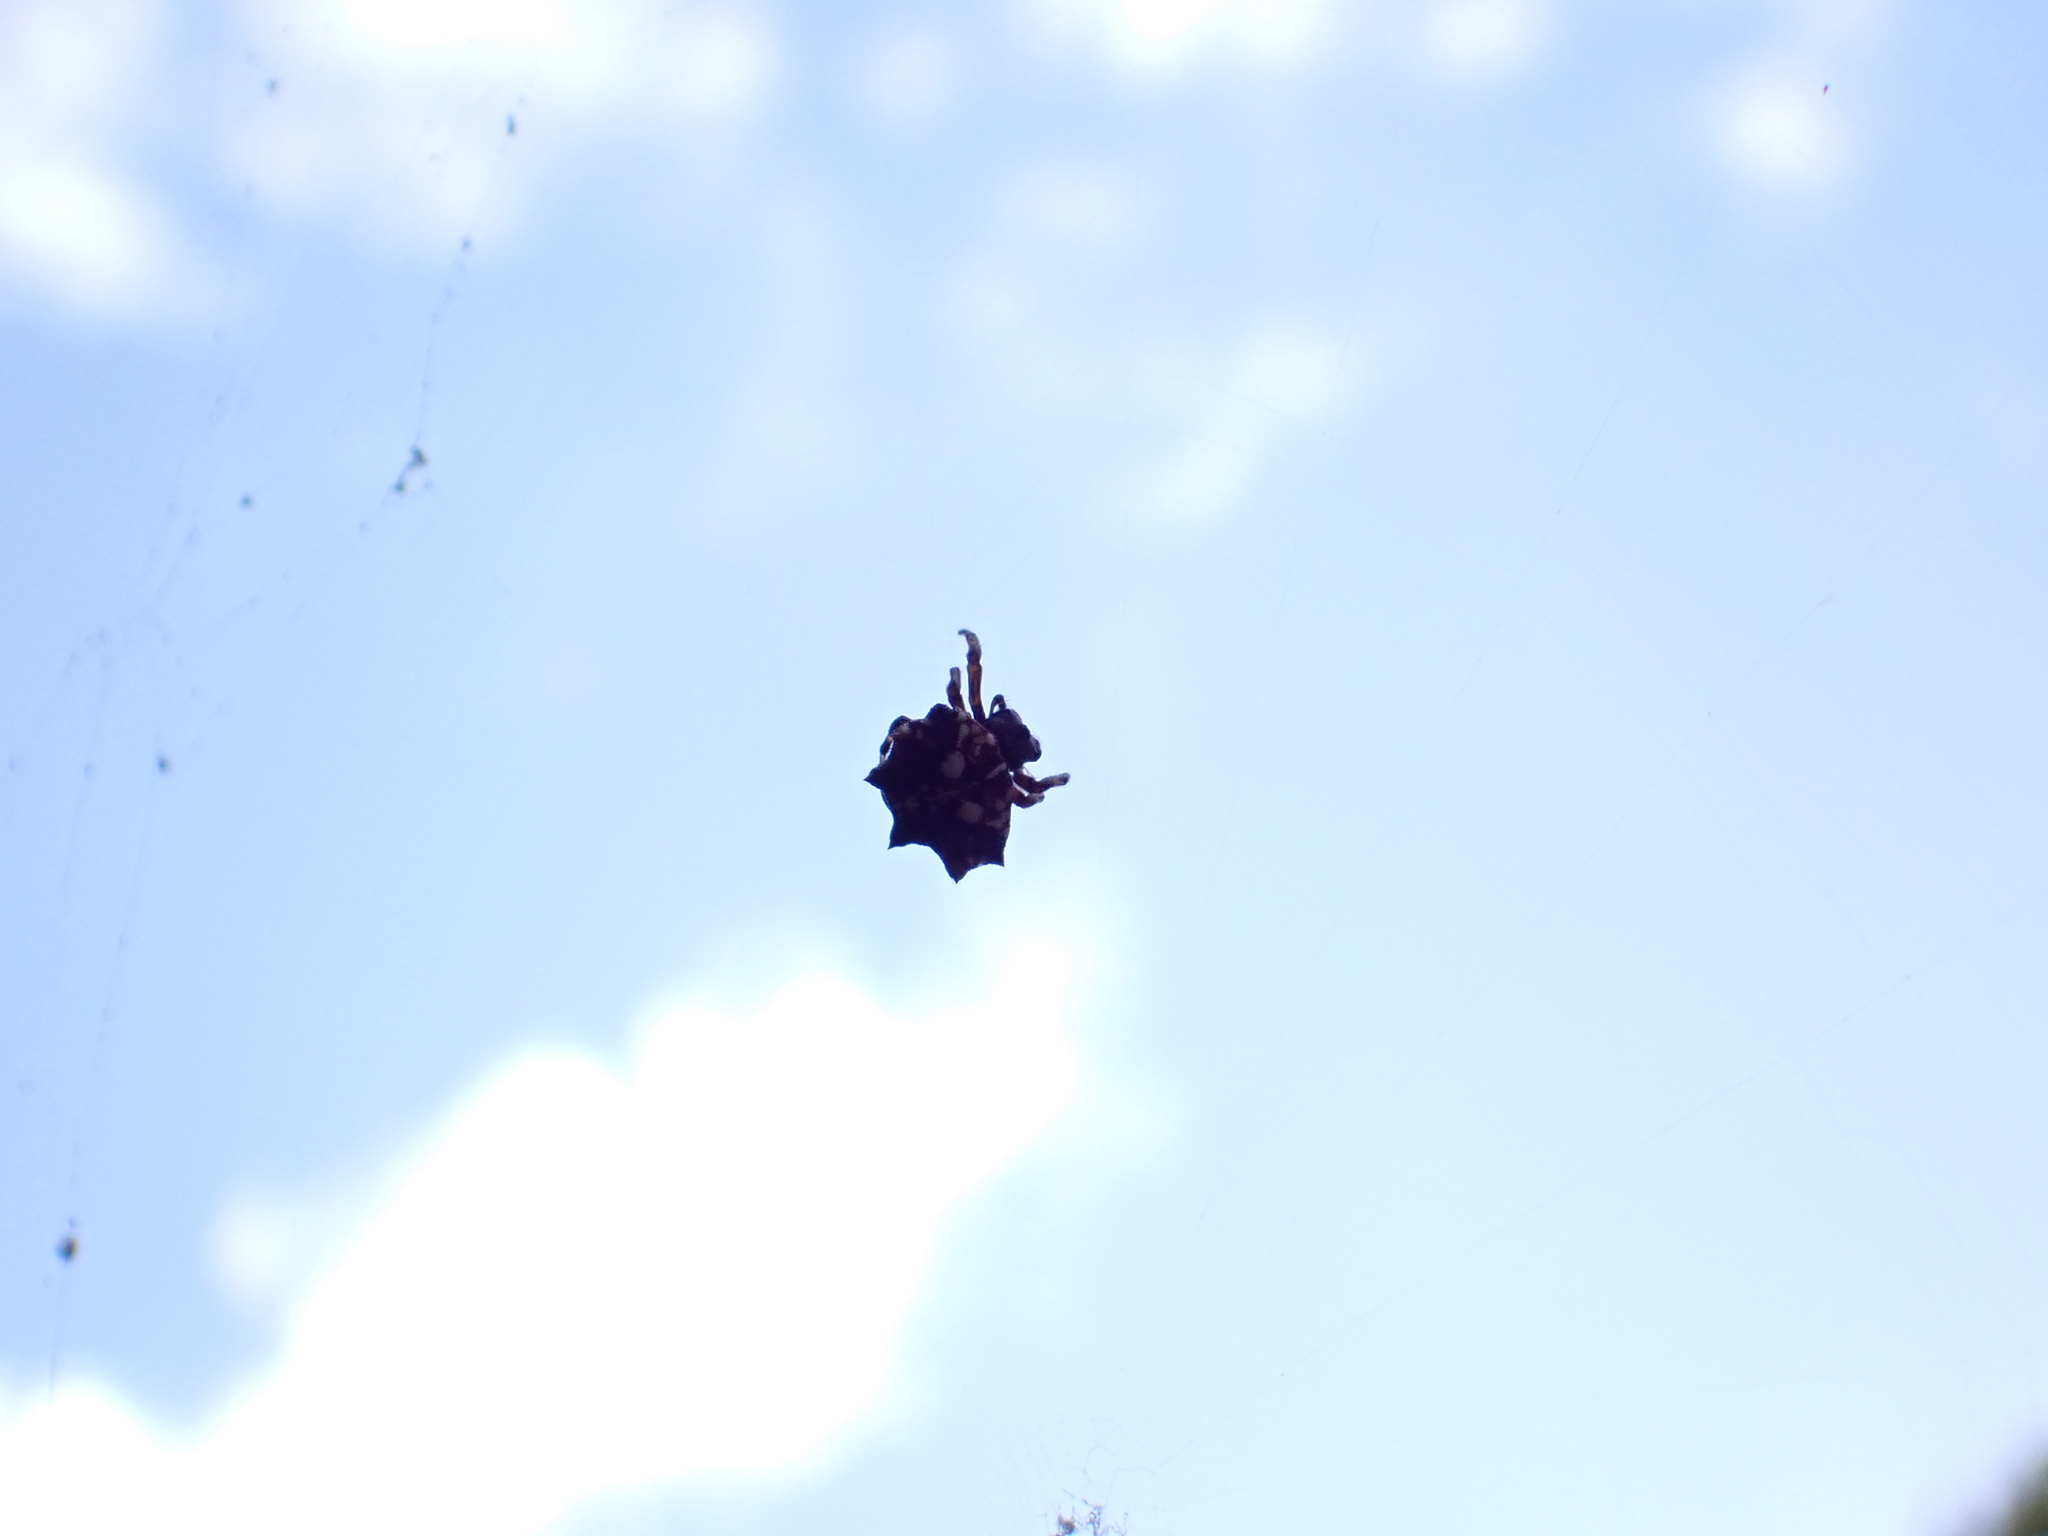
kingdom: Animalia
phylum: Arthropoda
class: Arachnida
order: Araneae
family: Araneidae
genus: Thelacantha
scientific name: Thelacantha brevispina
